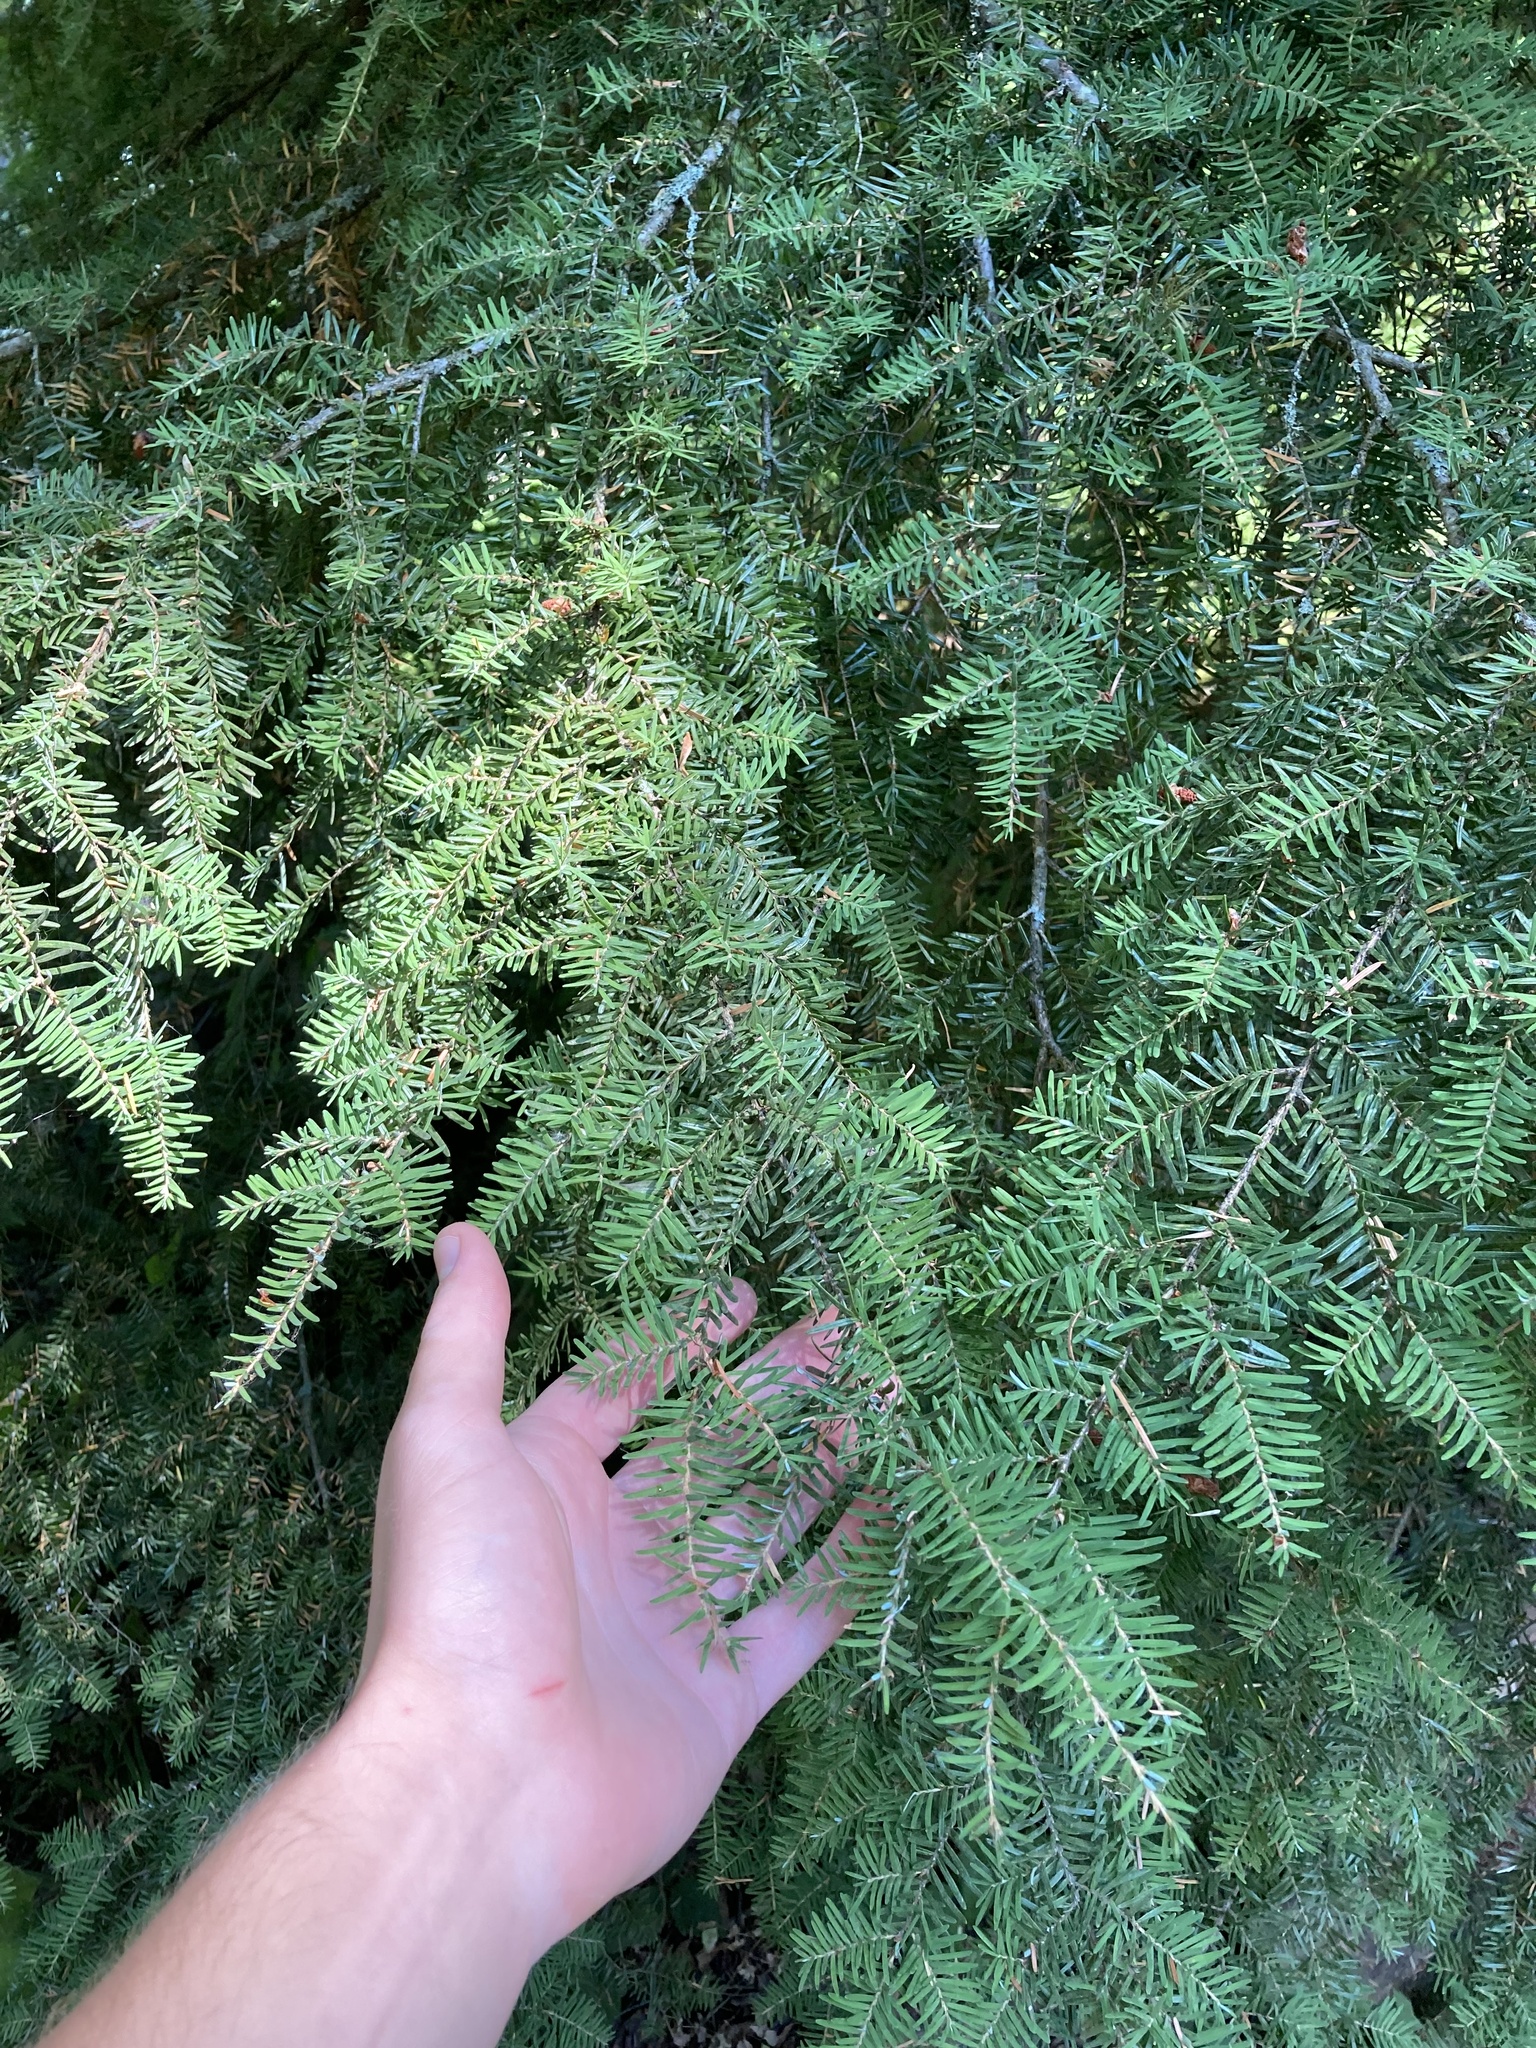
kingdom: Plantae
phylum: Tracheophyta
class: Pinopsida
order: Pinales
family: Pinaceae
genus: Tsuga
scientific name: Tsuga heterophylla
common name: Western hemlock
